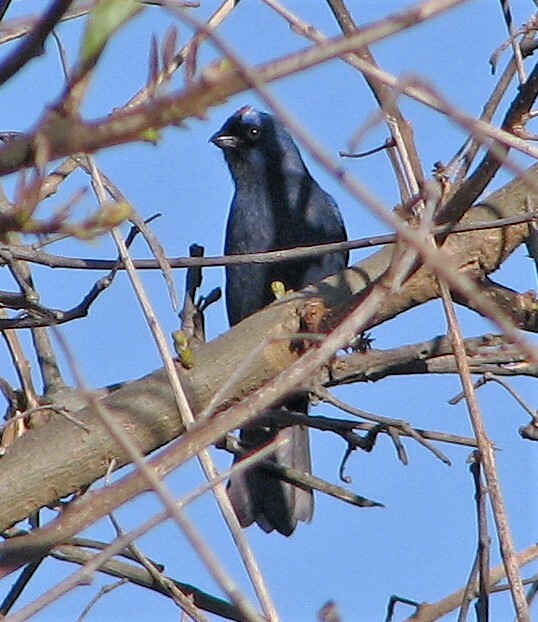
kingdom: Animalia
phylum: Chordata
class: Aves
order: Passeriformes
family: Thraupidae
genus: Stephanophorus
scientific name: Stephanophorus diadematus
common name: Diademed tanager
